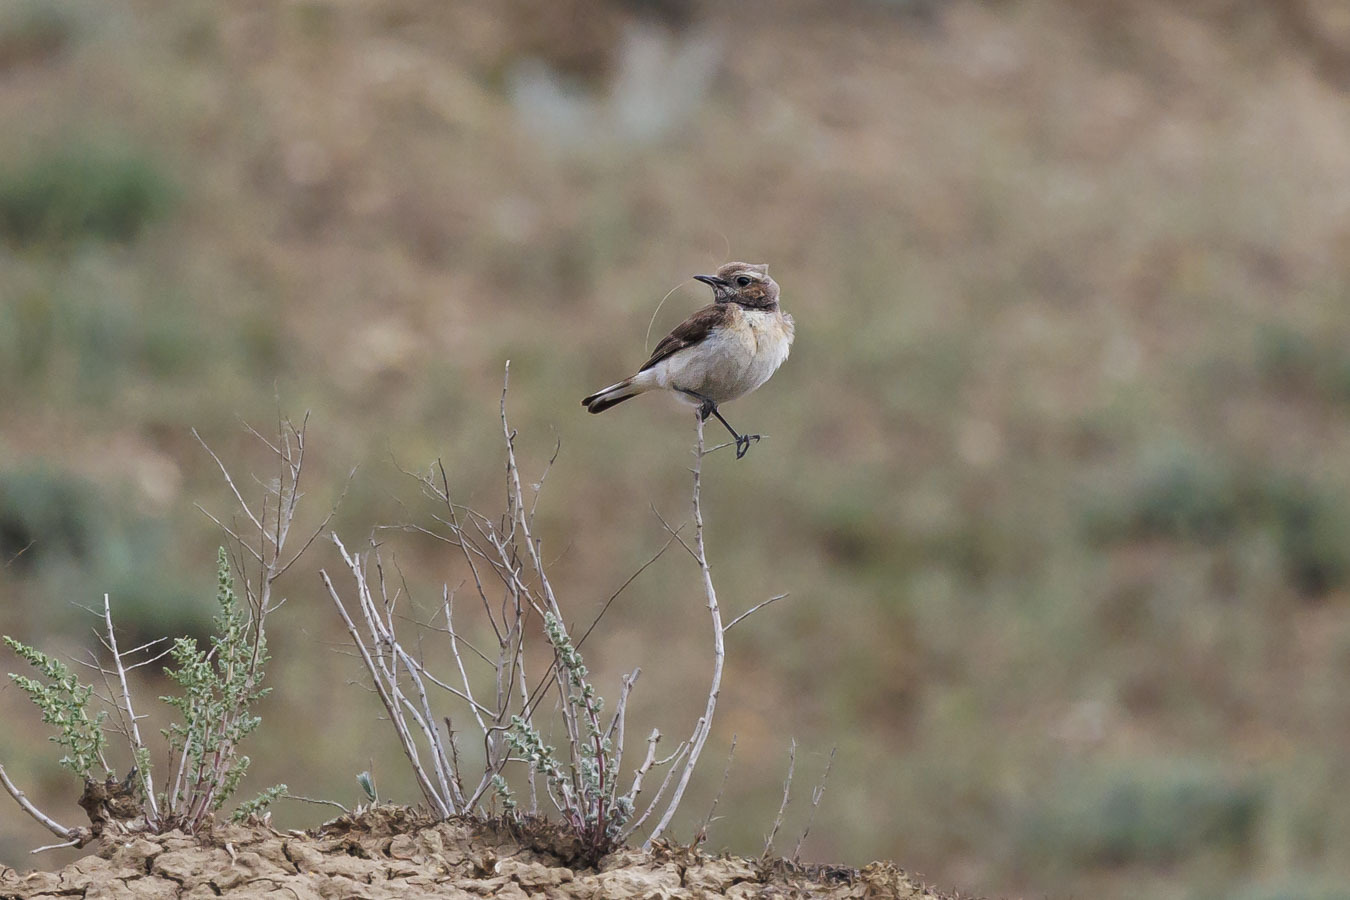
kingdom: Animalia
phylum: Chordata
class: Aves
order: Passeriformes
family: Muscicapidae
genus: Oenanthe
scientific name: Oenanthe pleschanka
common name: Pied wheatear
